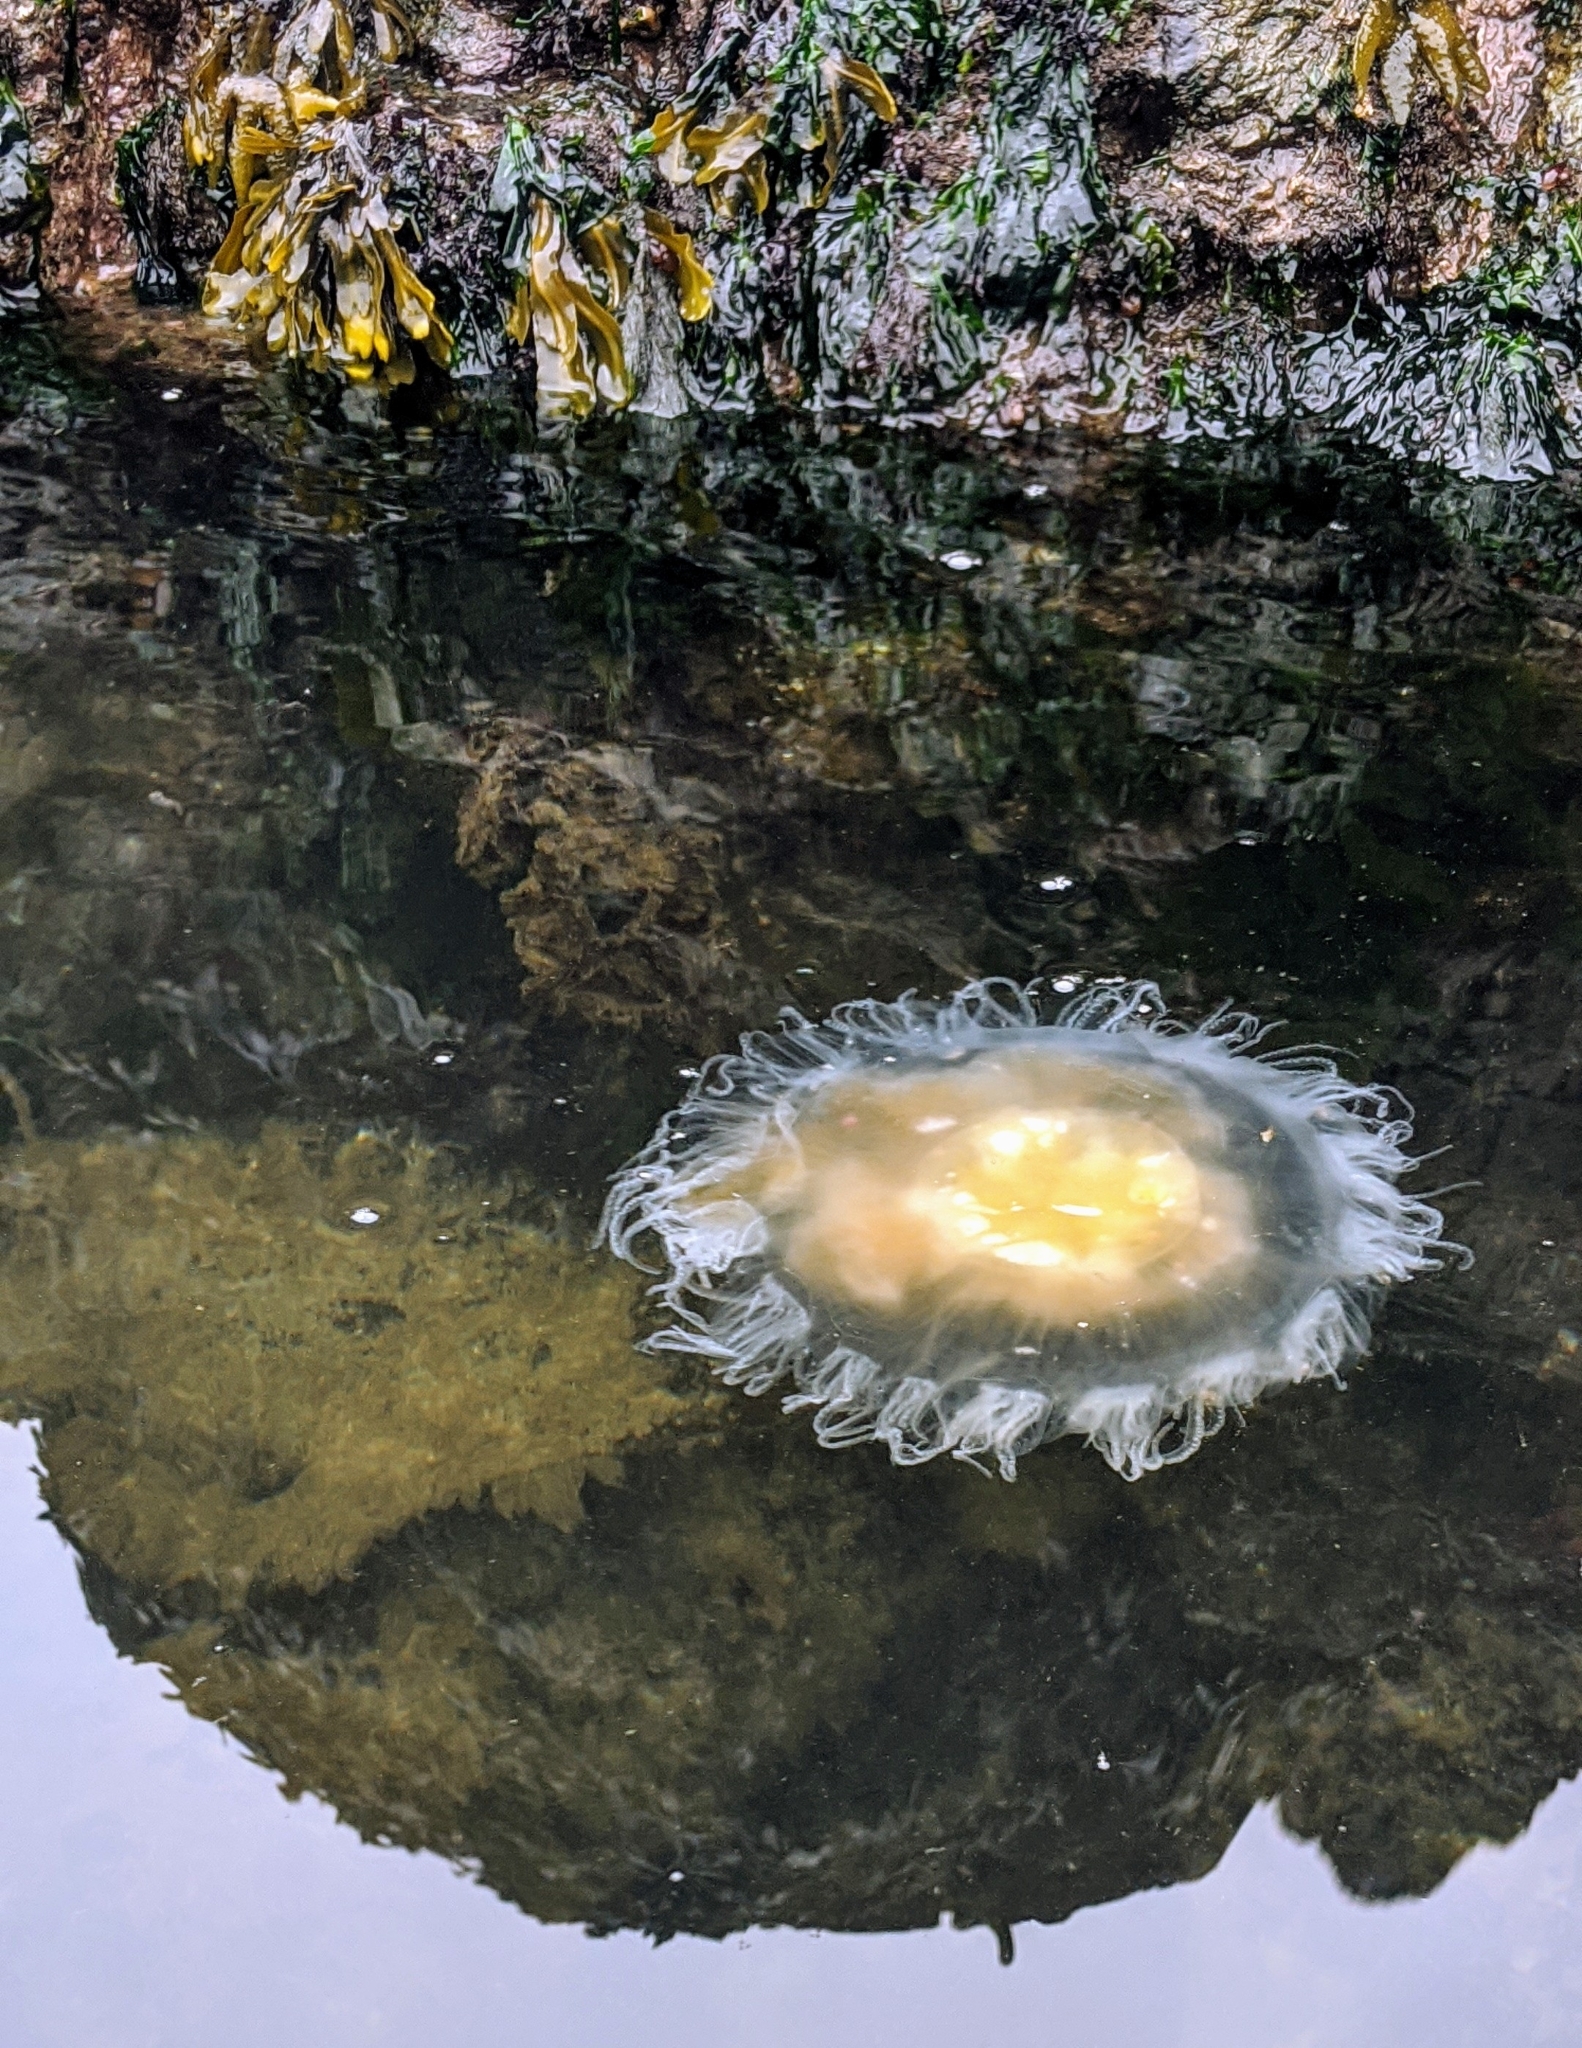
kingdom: Animalia
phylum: Cnidaria
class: Scyphozoa
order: Semaeostomeae
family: Phacellophoridae
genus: Phacellophora
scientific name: Phacellophora camtschatica
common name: Fried-egg jellyfish
